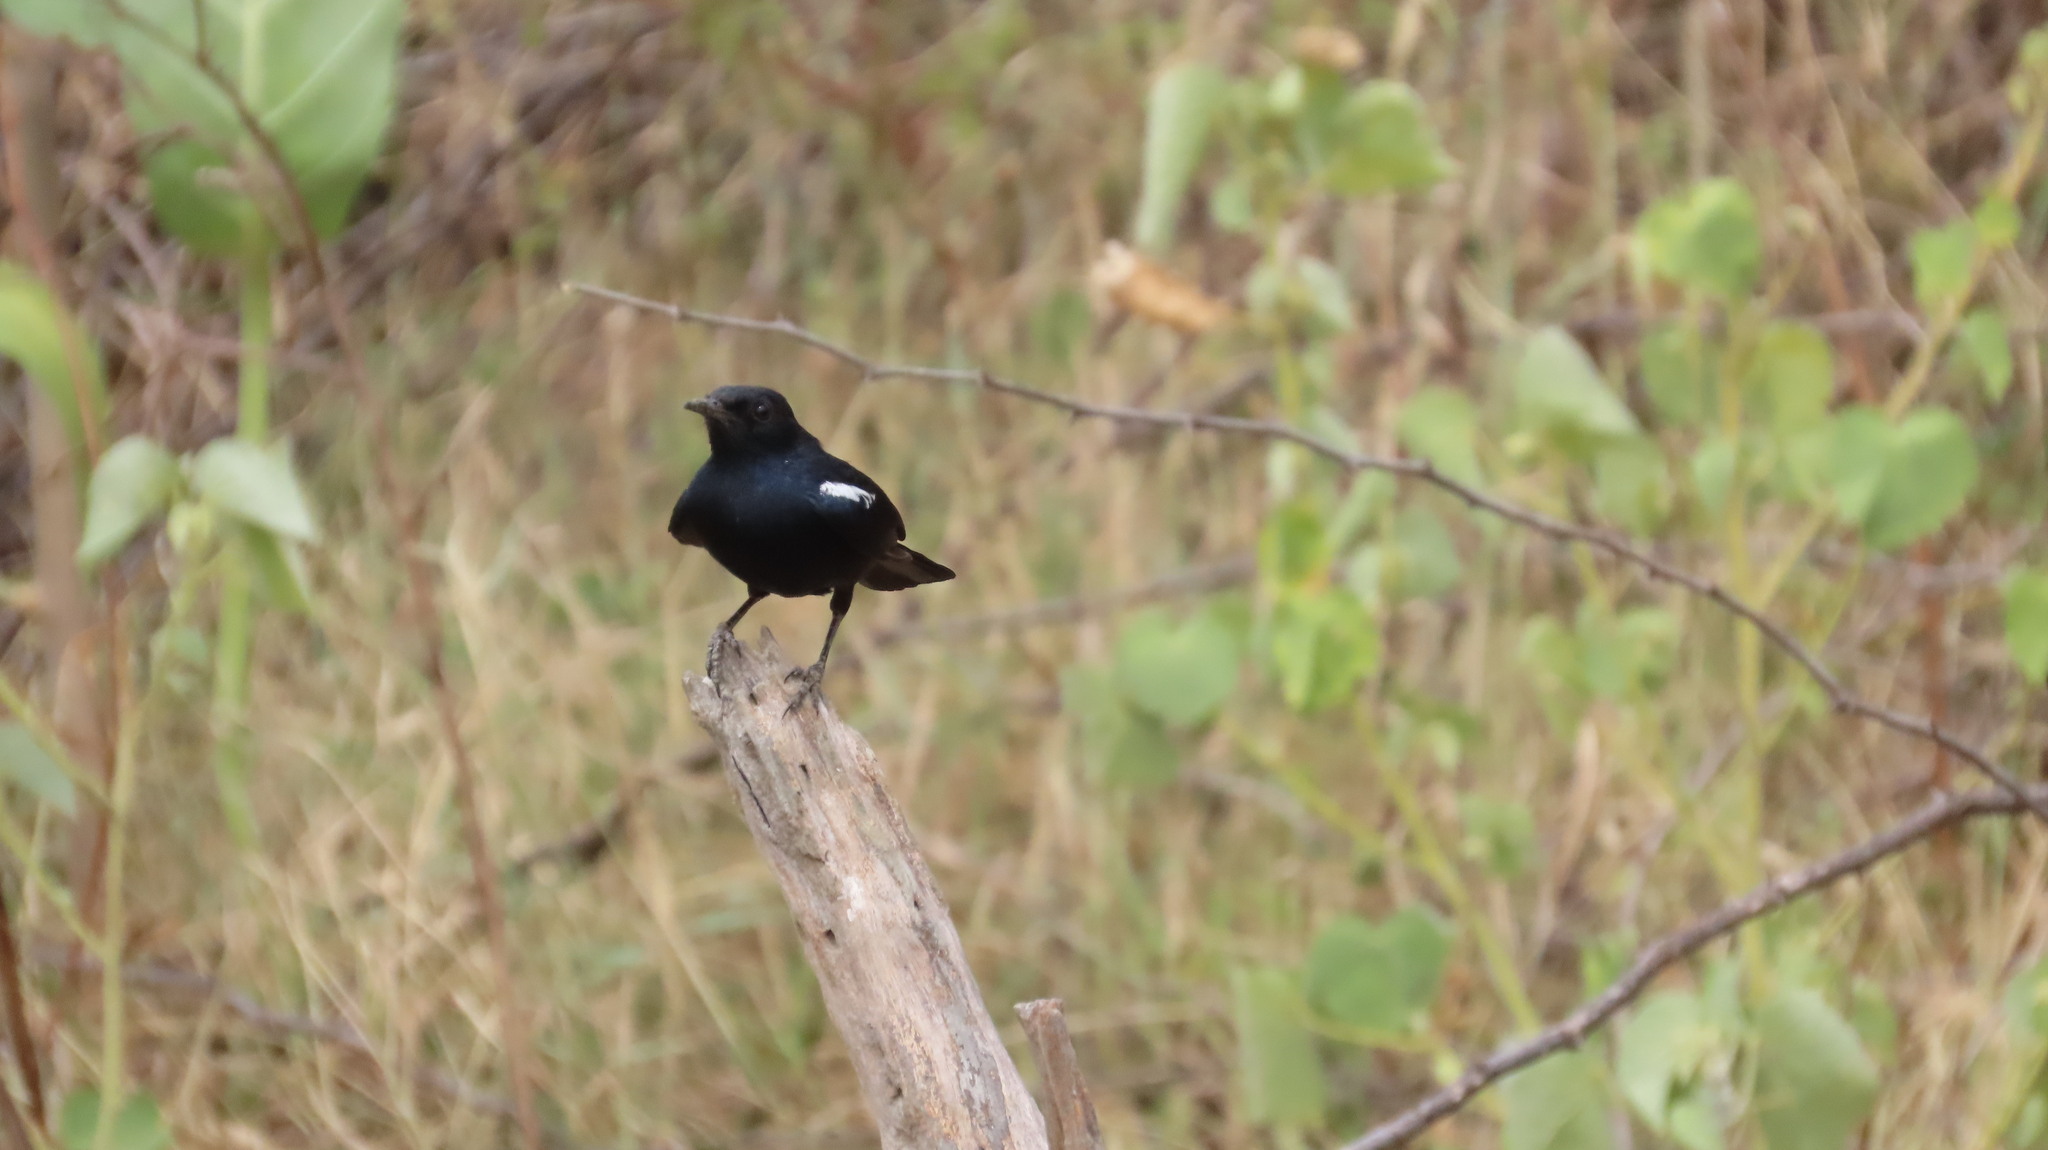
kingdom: Animalia
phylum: Chordata
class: Aves
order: Passeriformes
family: Muscicapidae
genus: Saxicoloides
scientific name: Saxicoloides fulicatus
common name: Indian robin
